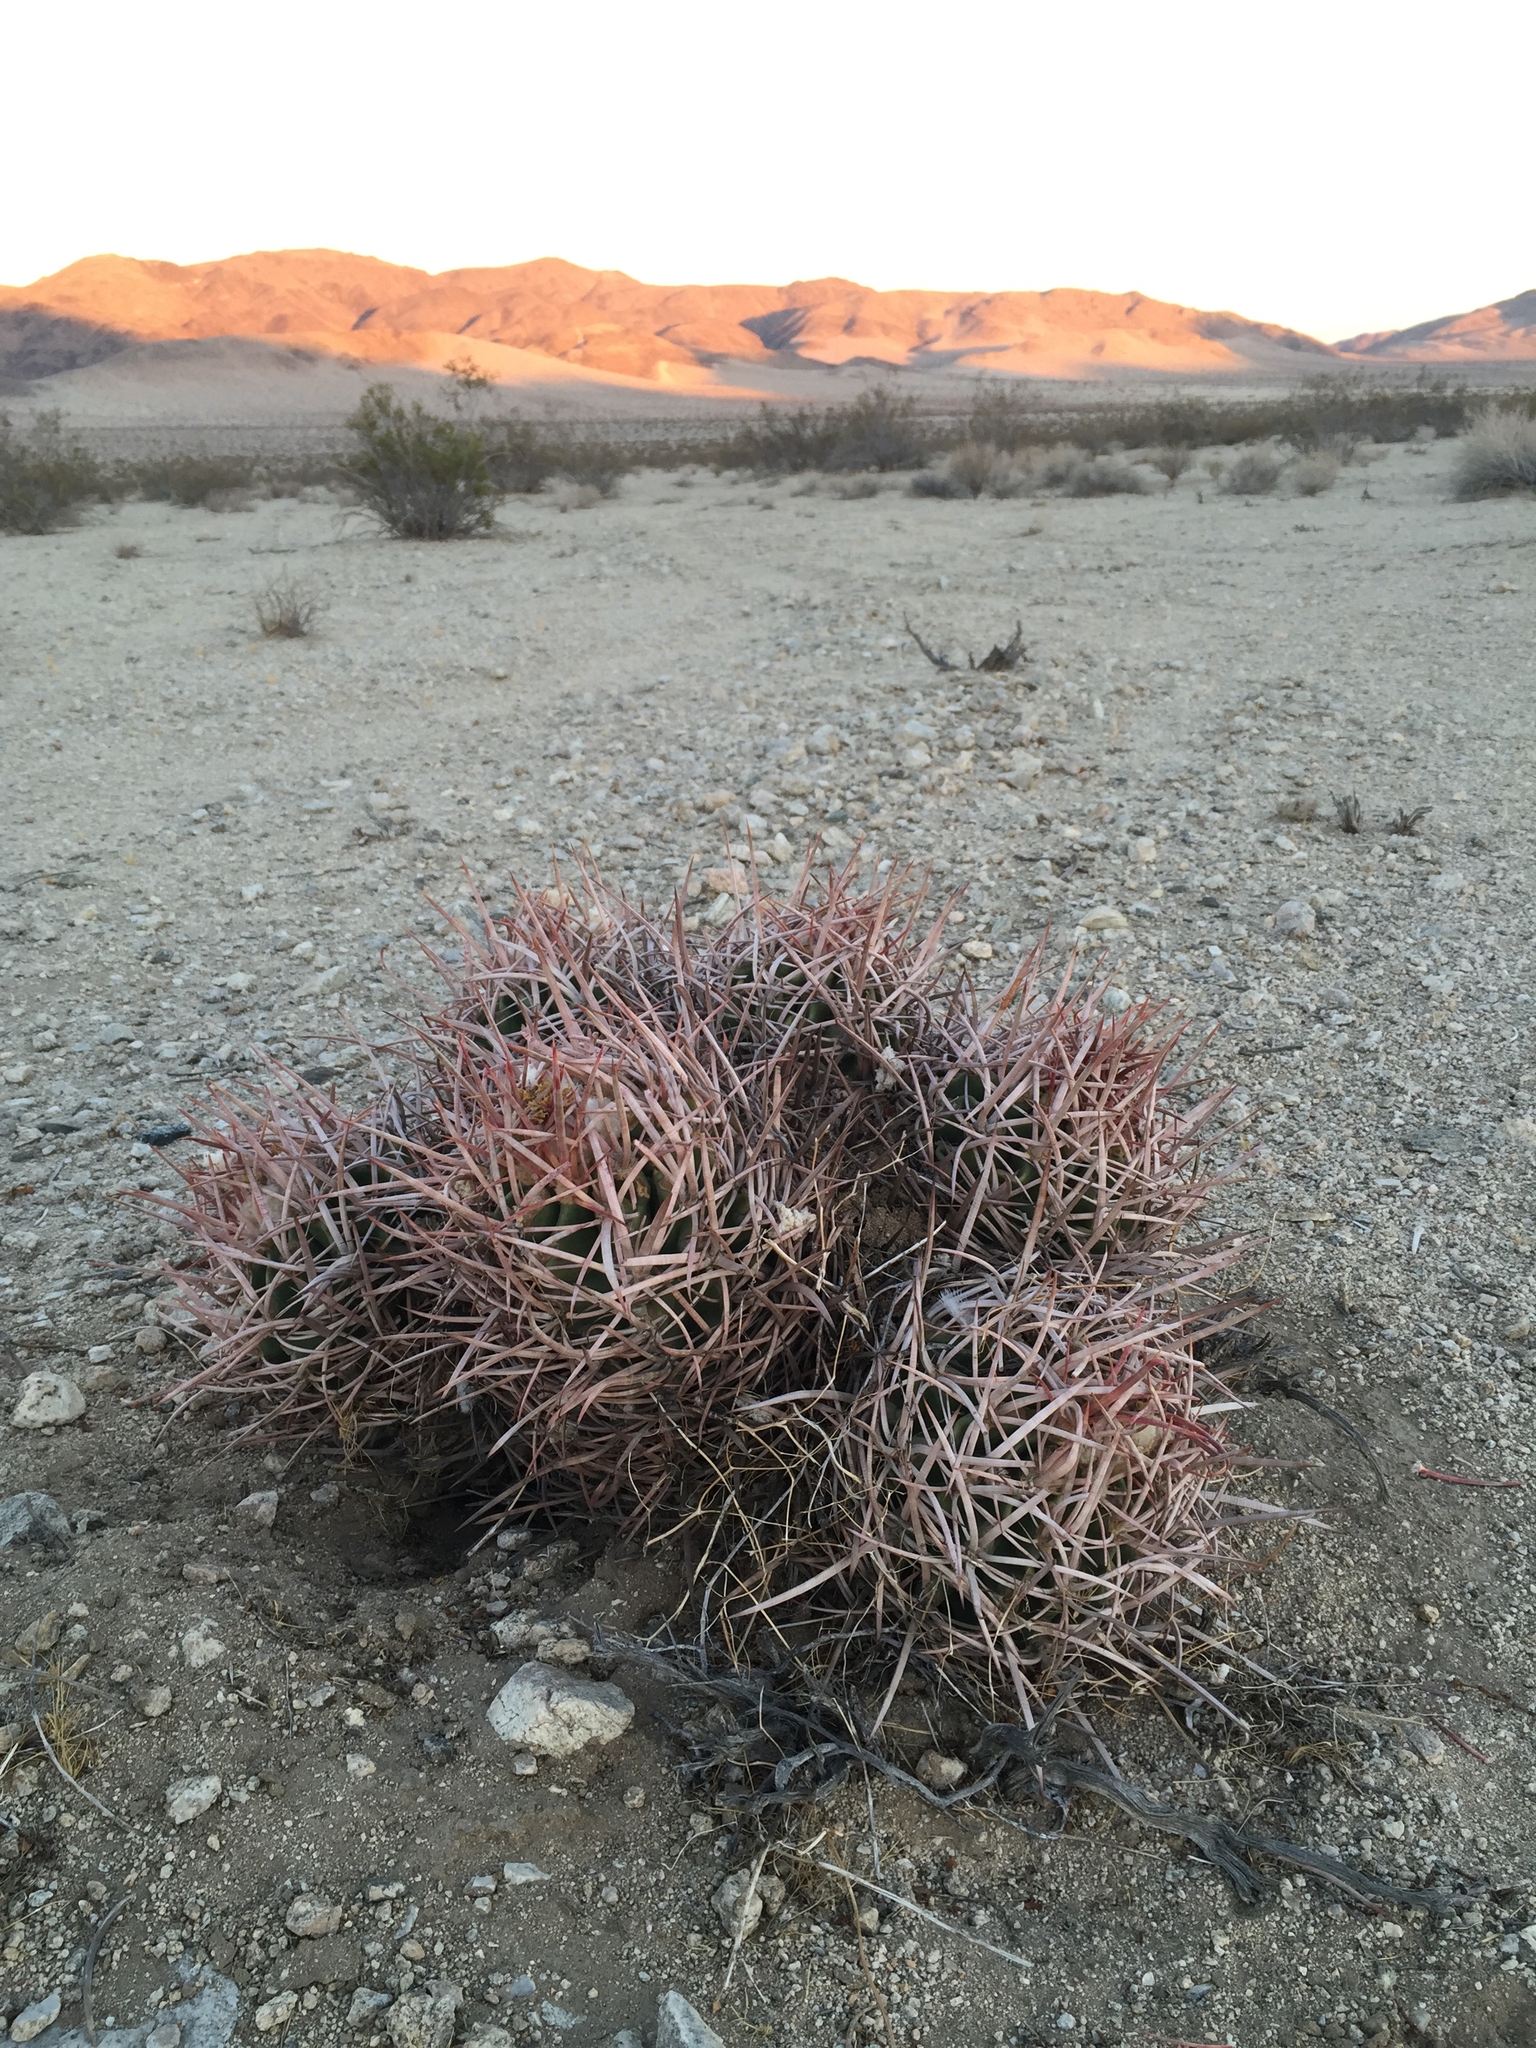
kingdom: Plantae
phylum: Tracheophyta
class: Magnoliopsida
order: Caryophyllales
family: Cactaceae
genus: Echinocactus
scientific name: Echinocactus polycephalus
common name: Cottontop cactus
